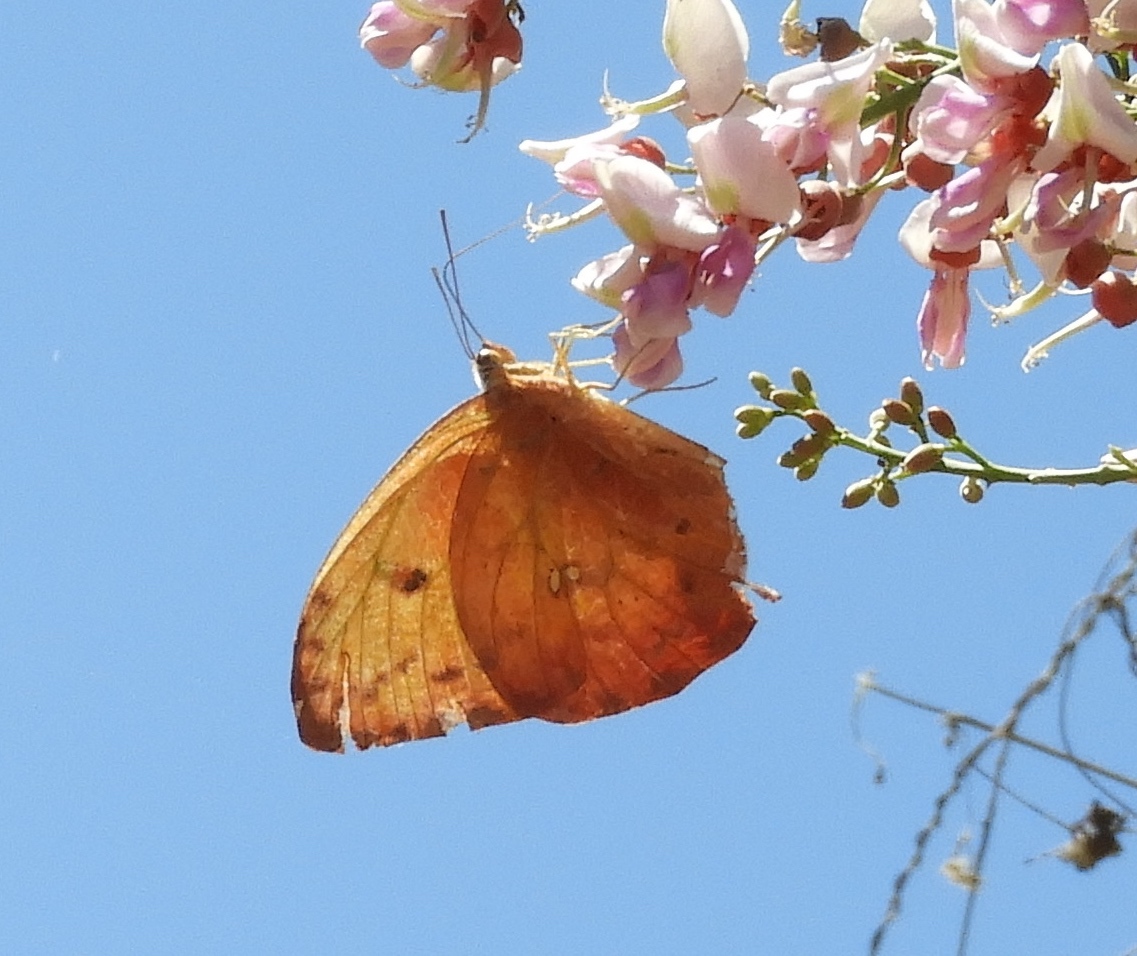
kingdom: Animalia
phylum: Arthropoda
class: Insecta
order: Lepidoptera
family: Pieridae
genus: Phoebis
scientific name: Phoebis philea
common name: Orange-barred giant sulphur
